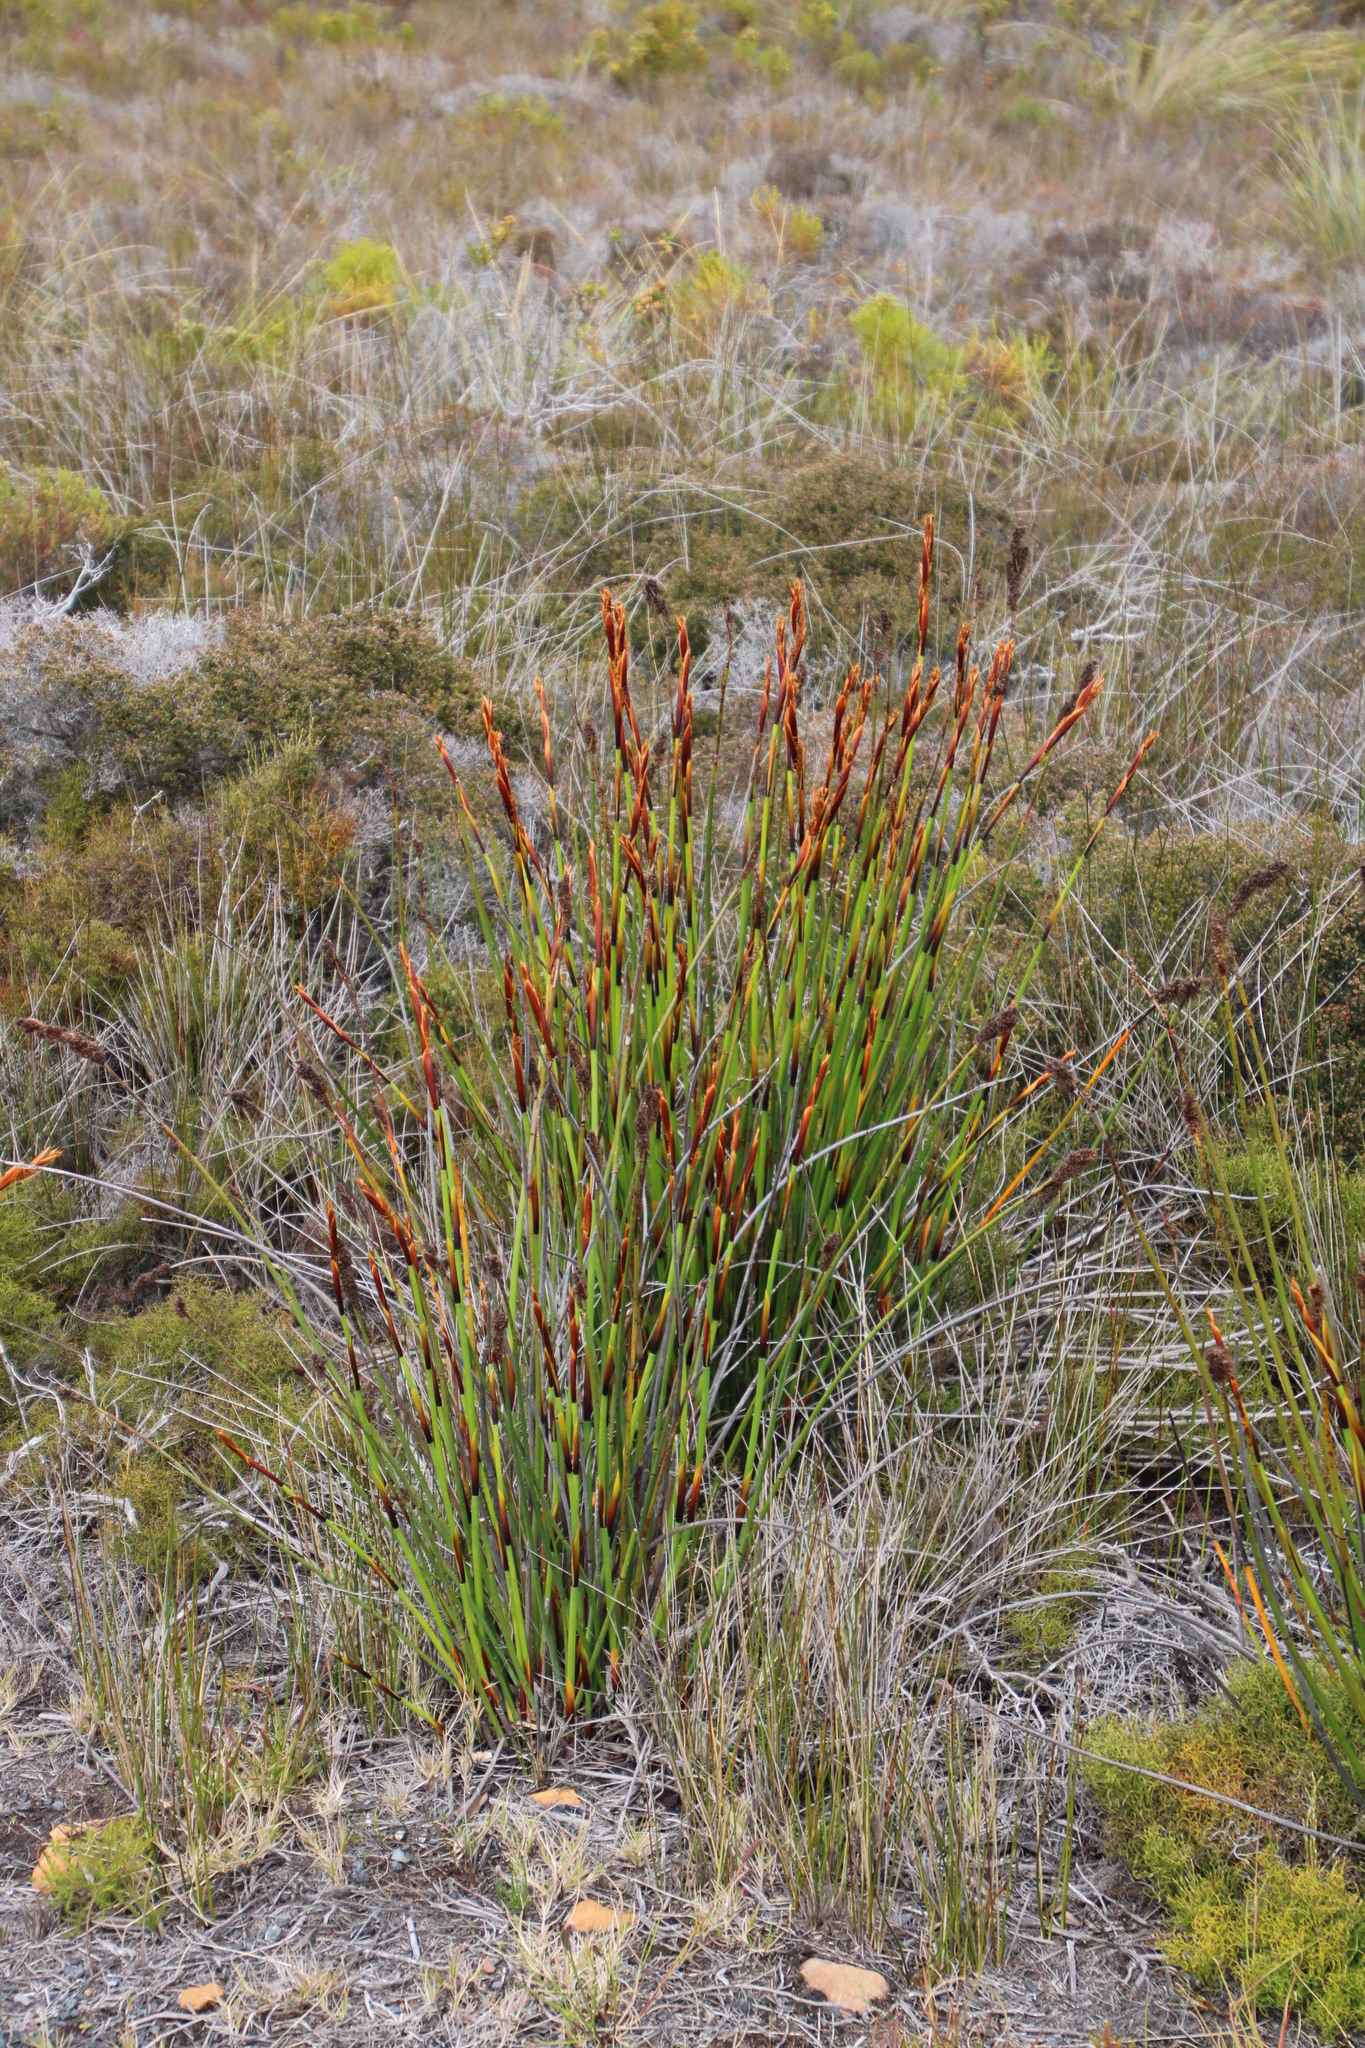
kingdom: Plantae
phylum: Tracheophyta
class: Liliopsida
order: Poales
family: Restionaceae
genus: Elegia
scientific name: Elegia cuspidata
